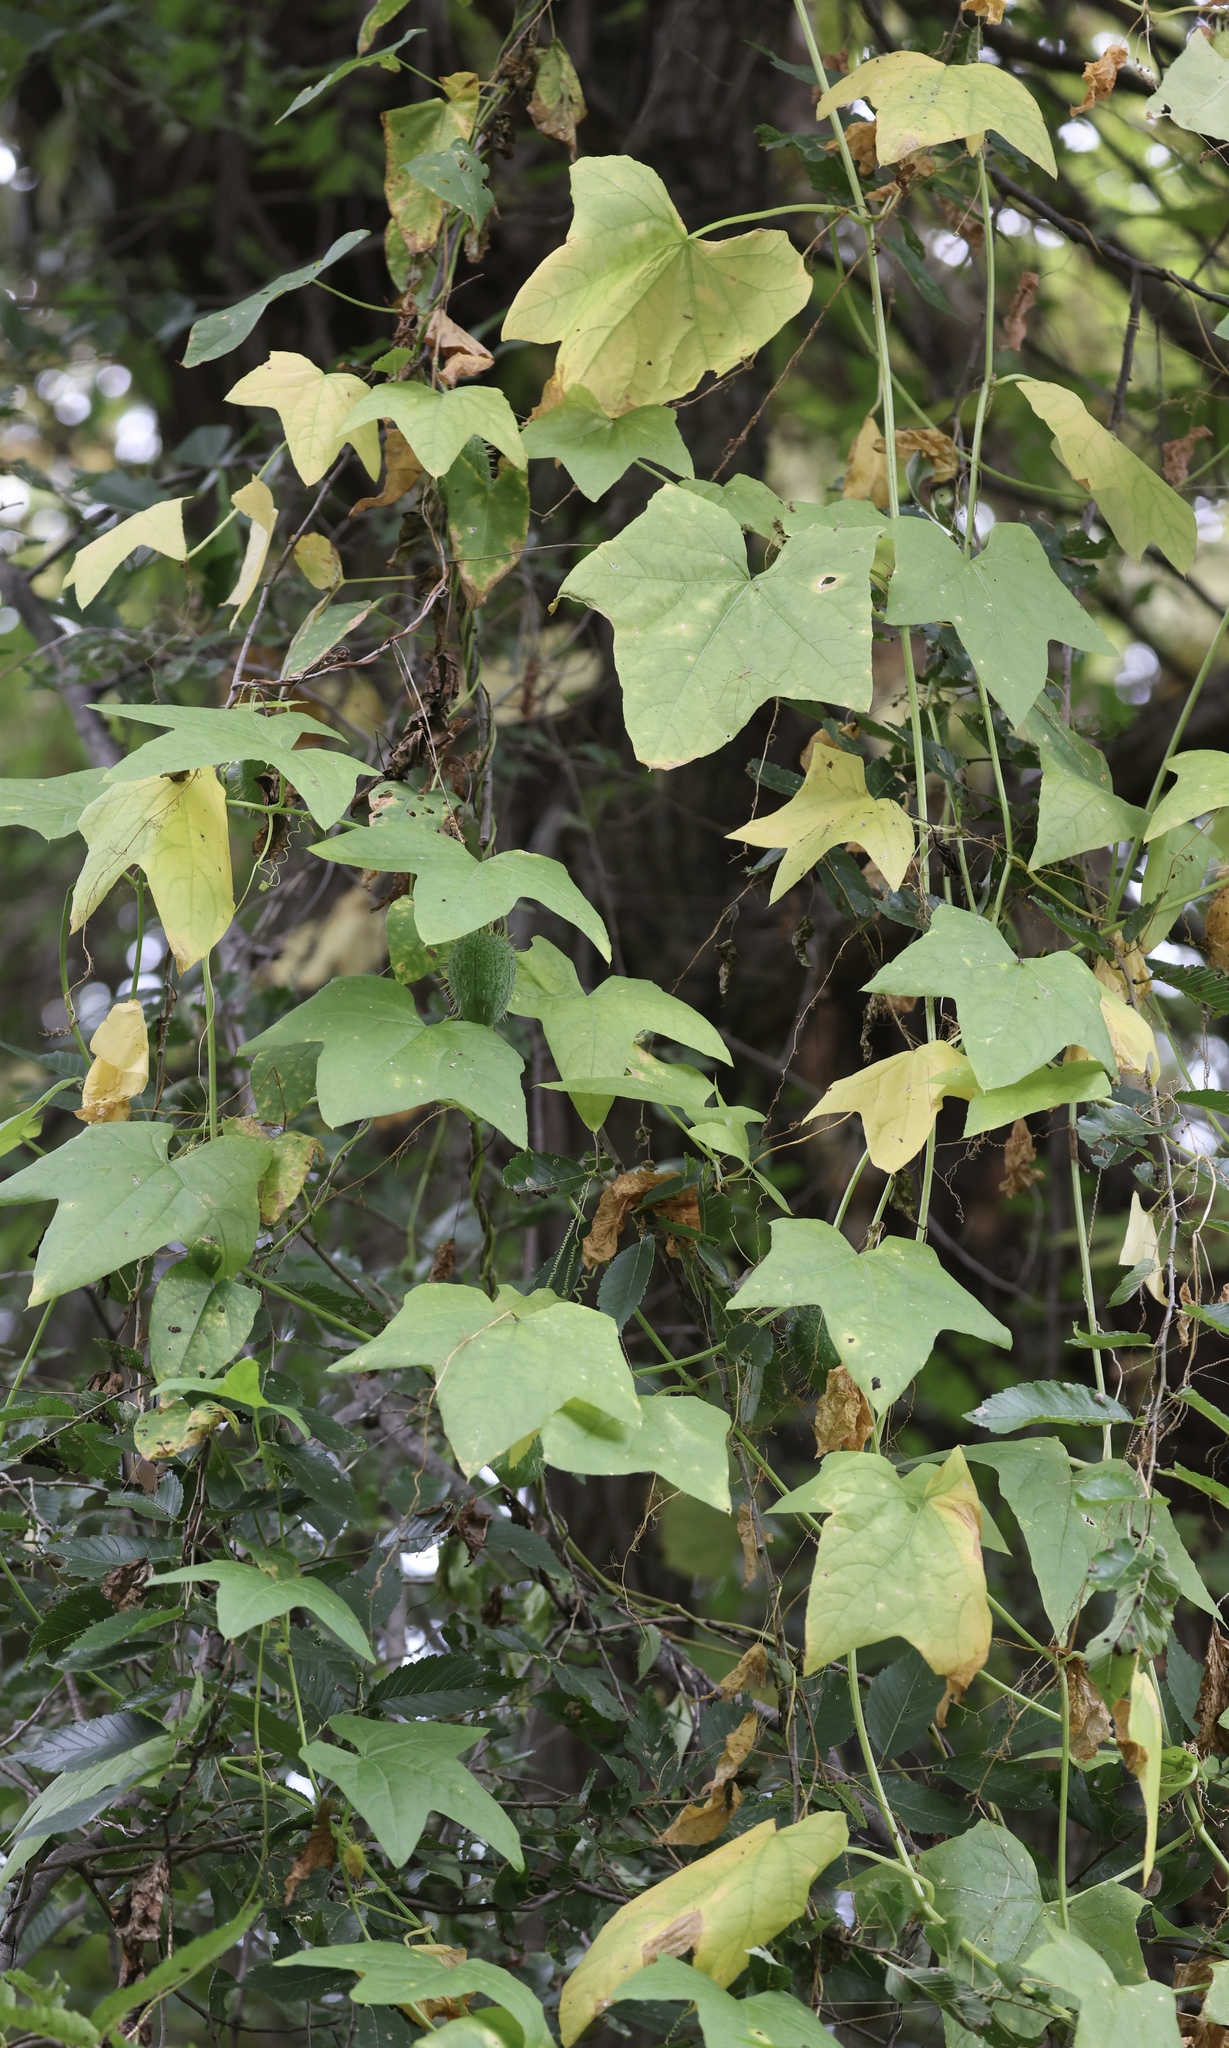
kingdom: Plantae
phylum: Tracheophyta
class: Magnoliopsida
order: Cucurbitales
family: Cucurbitaceae
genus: Echinocystis
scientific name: Echinocystis lobata
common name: Wild cucumber
